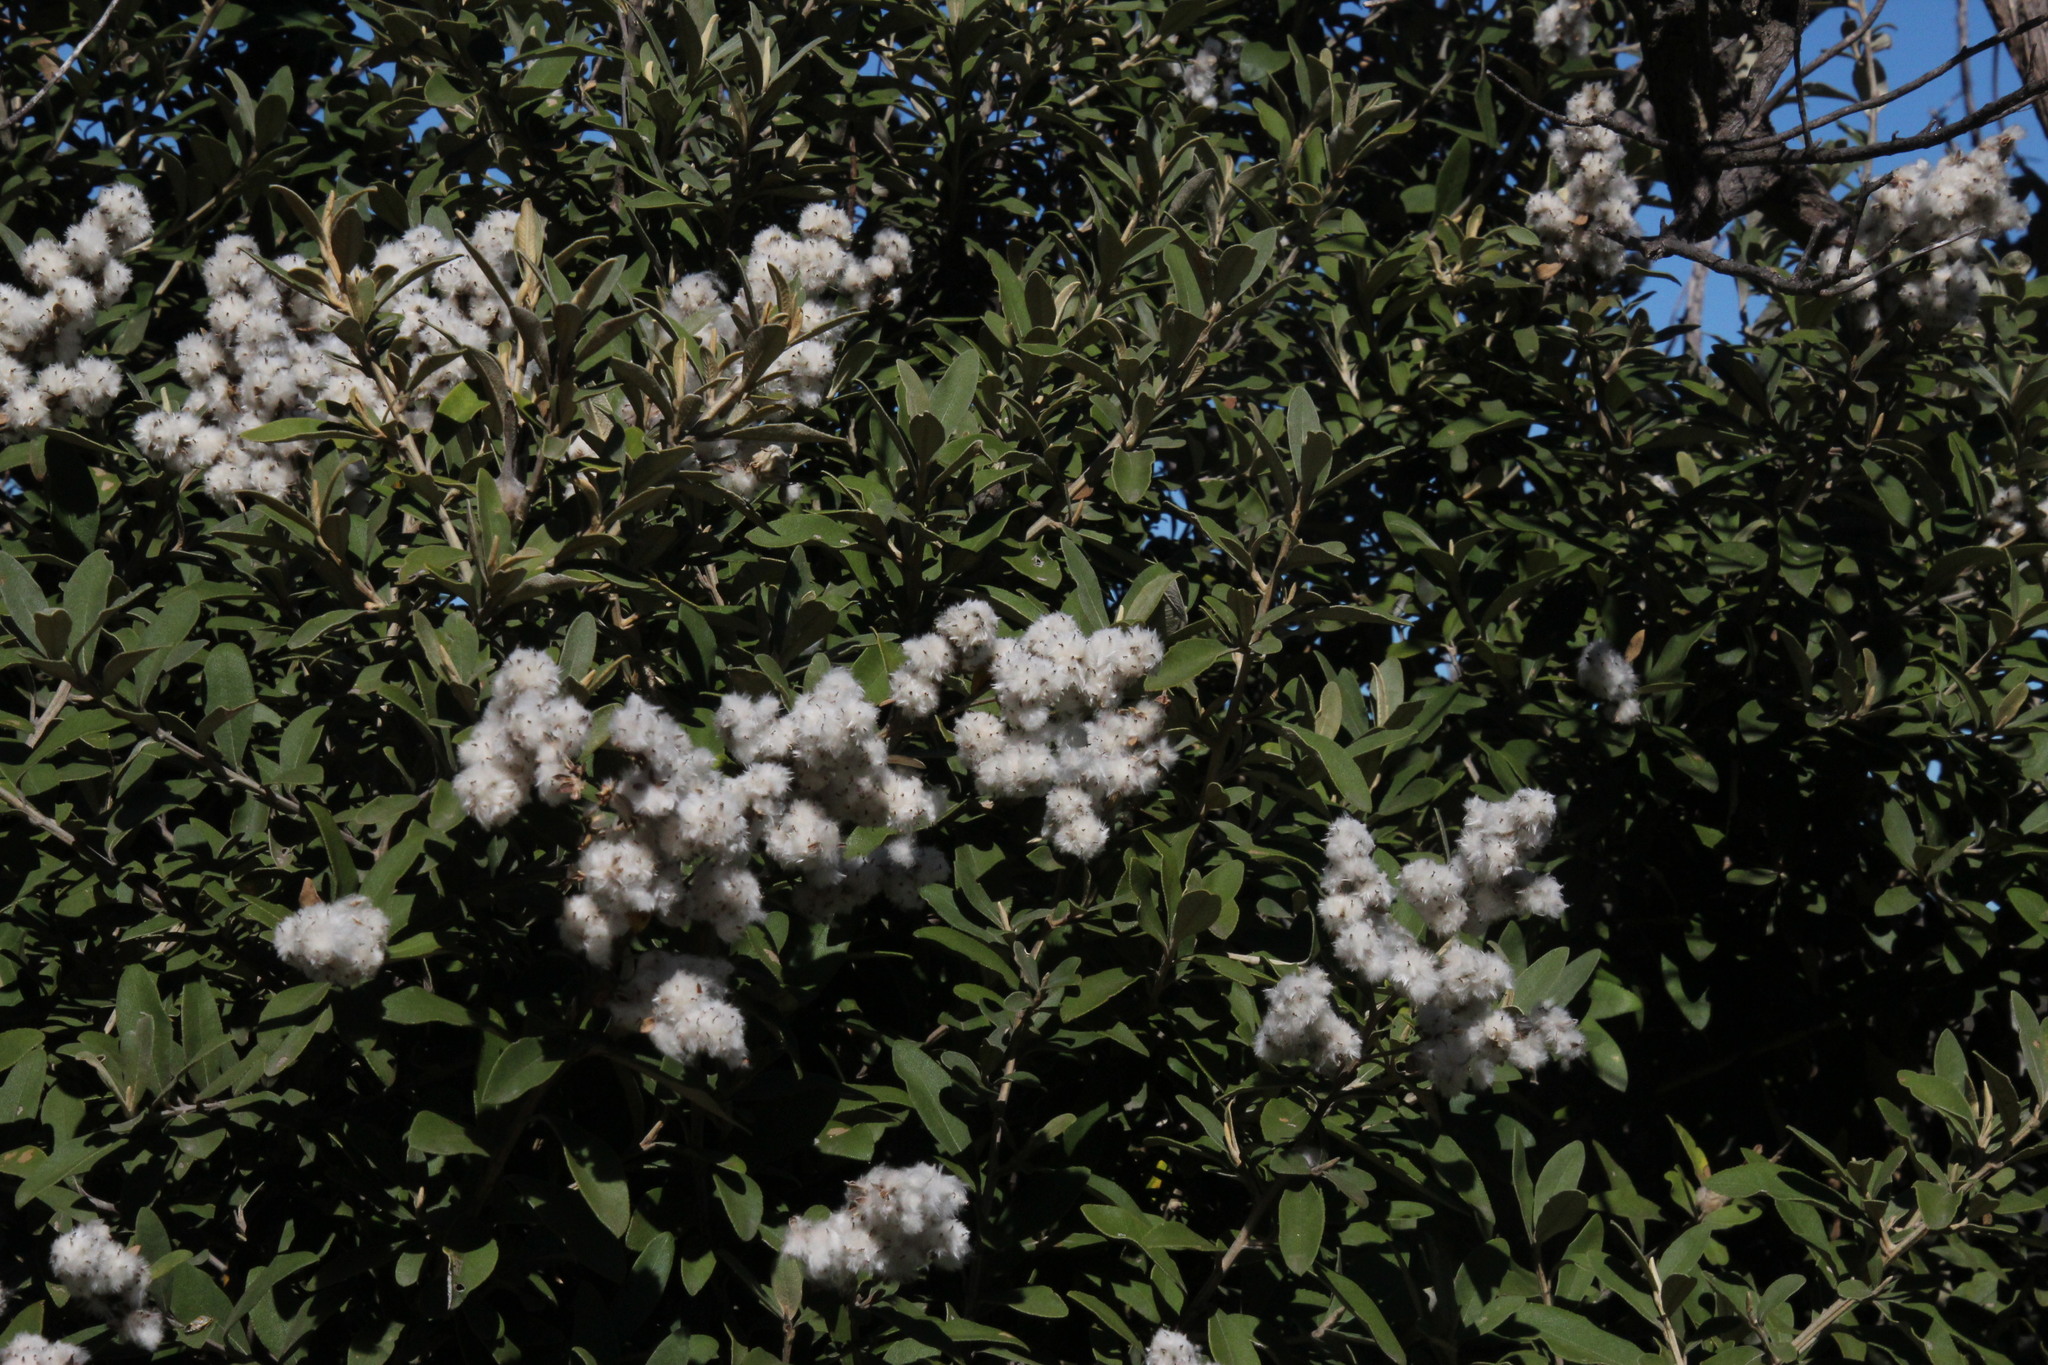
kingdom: Plantae
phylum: Tracheophyta
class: Magnoliopsida
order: Asterales
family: Asteraceae
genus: Tarchonanthus
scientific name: Tarchonanthus littoralis
